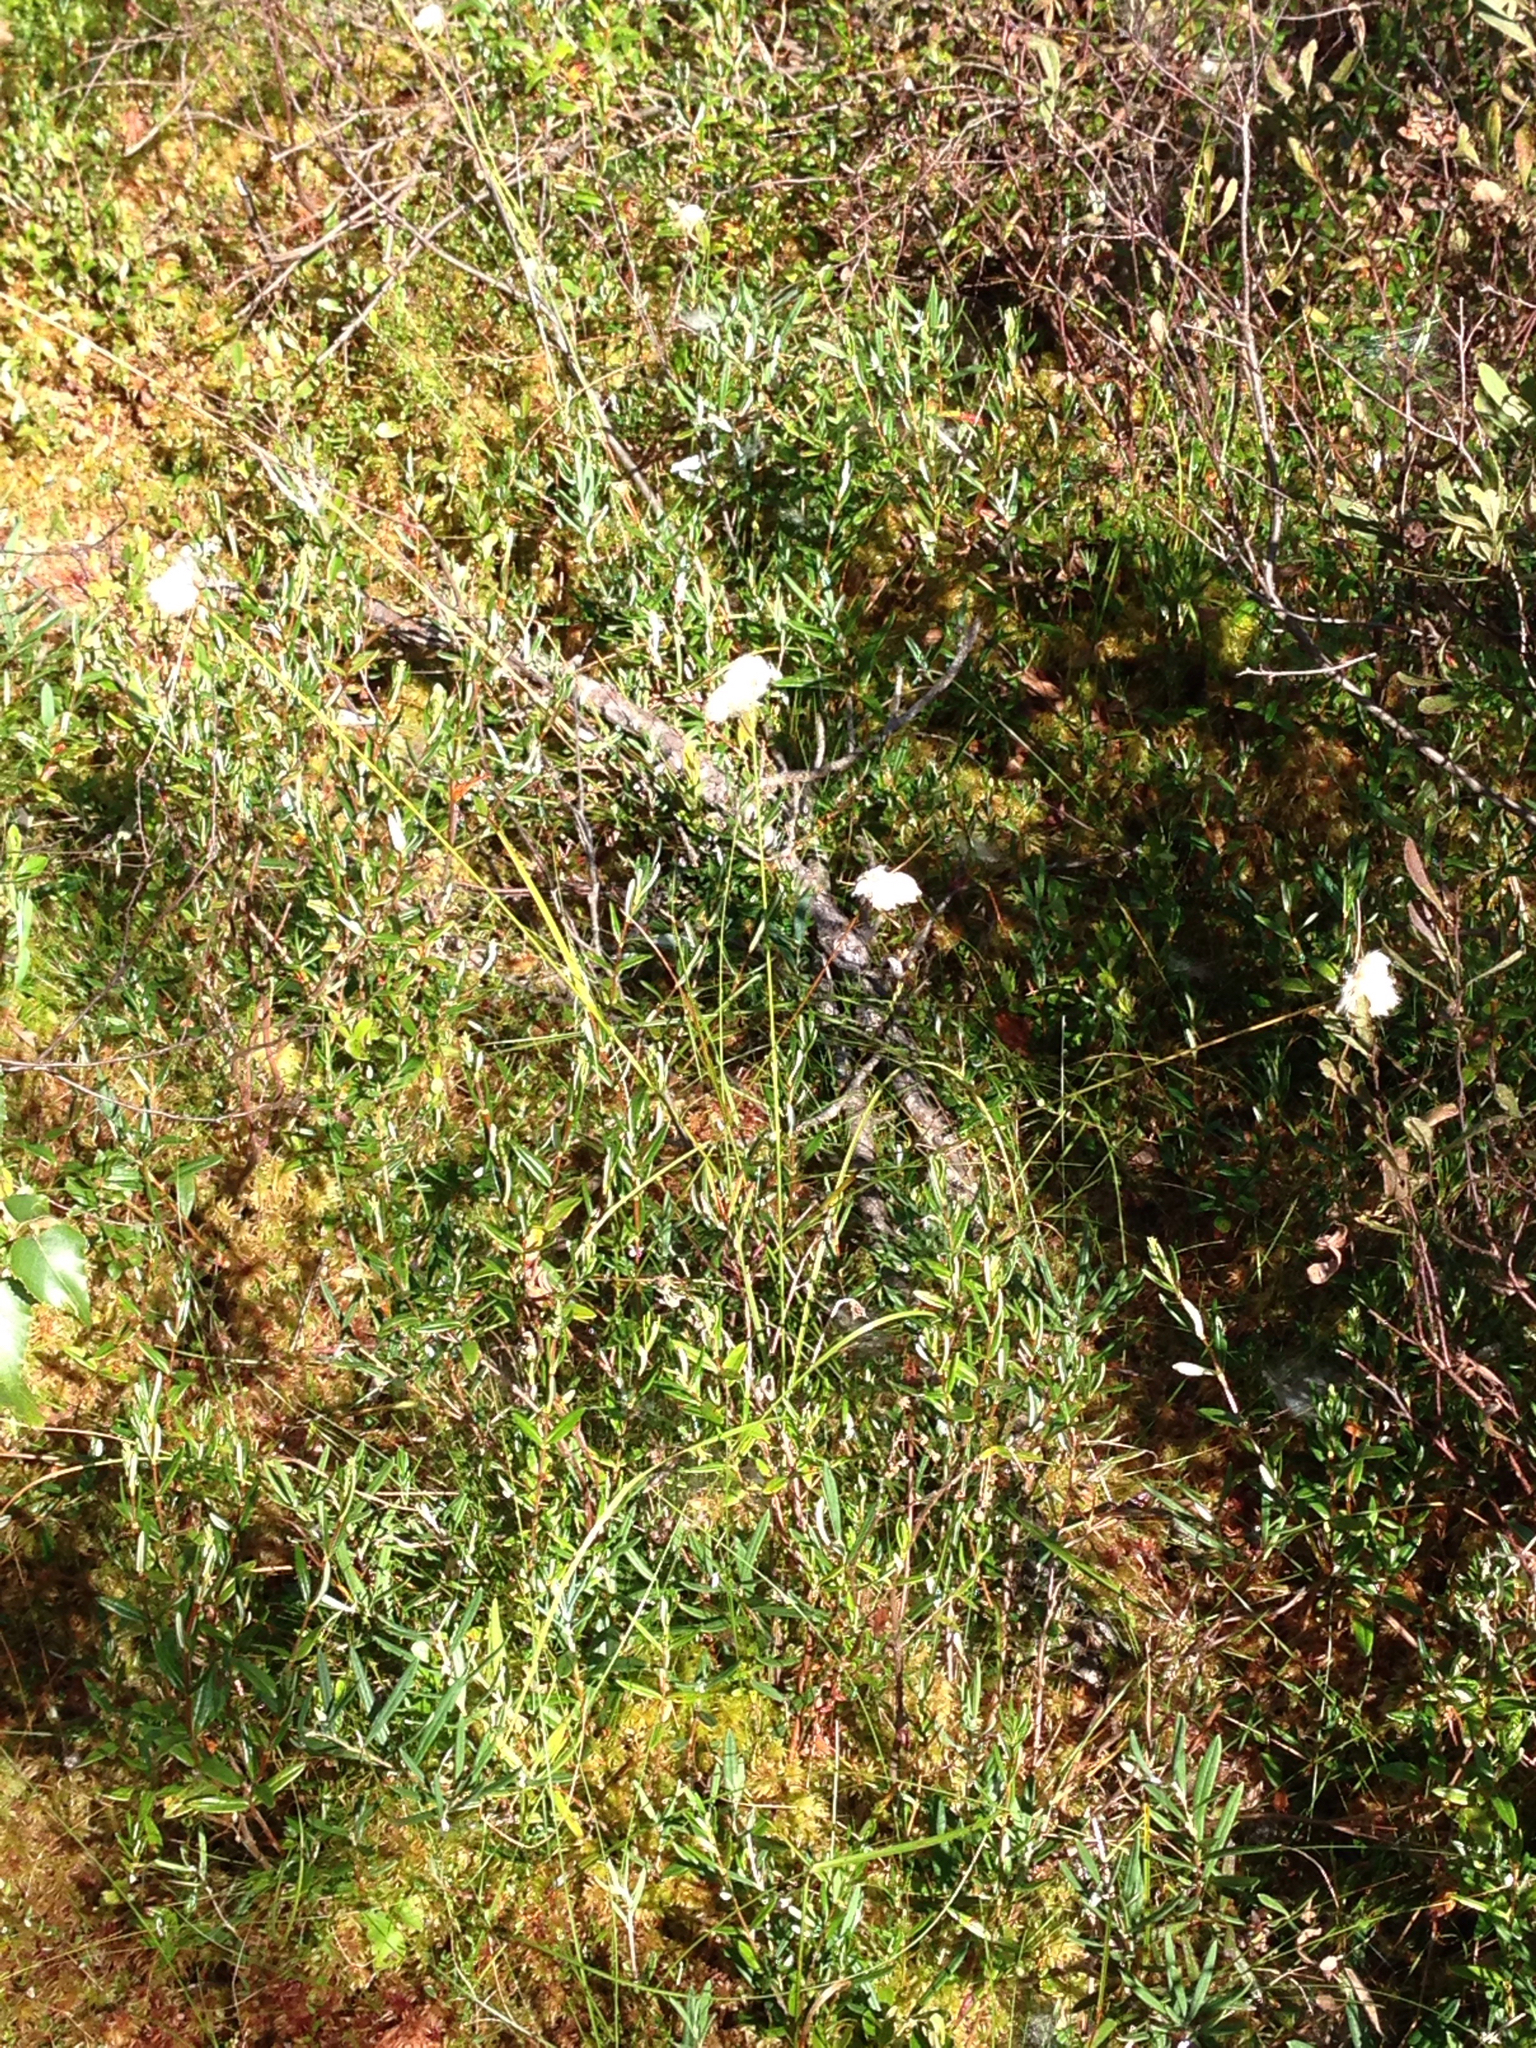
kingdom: Plantae
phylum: Tracheophyta
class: Liliopsida
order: Poales
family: Cyperaceae
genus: Eriophorum
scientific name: Eriophorum virginicum
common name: Tawny cottongrass
